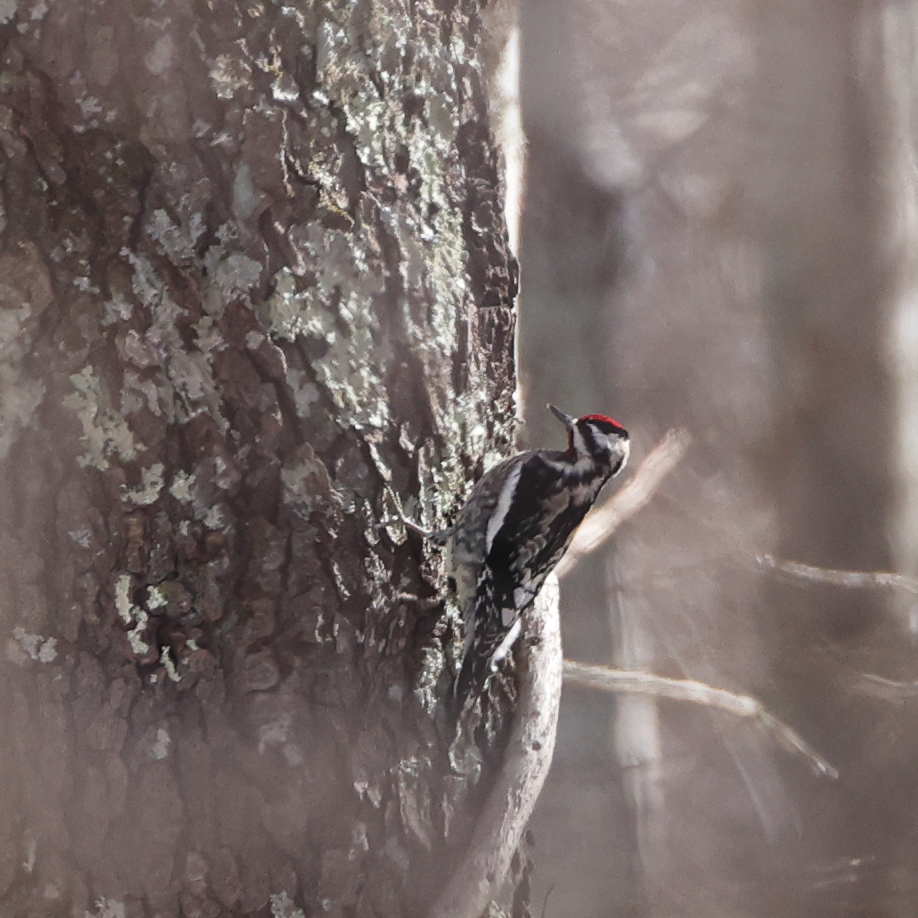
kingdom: Animalia
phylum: Chordata
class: Aves
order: Piciformes
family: Picidae
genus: Sphyrapicus
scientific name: Sphyrapicus varius
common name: Yellow-bellied sapsucker
